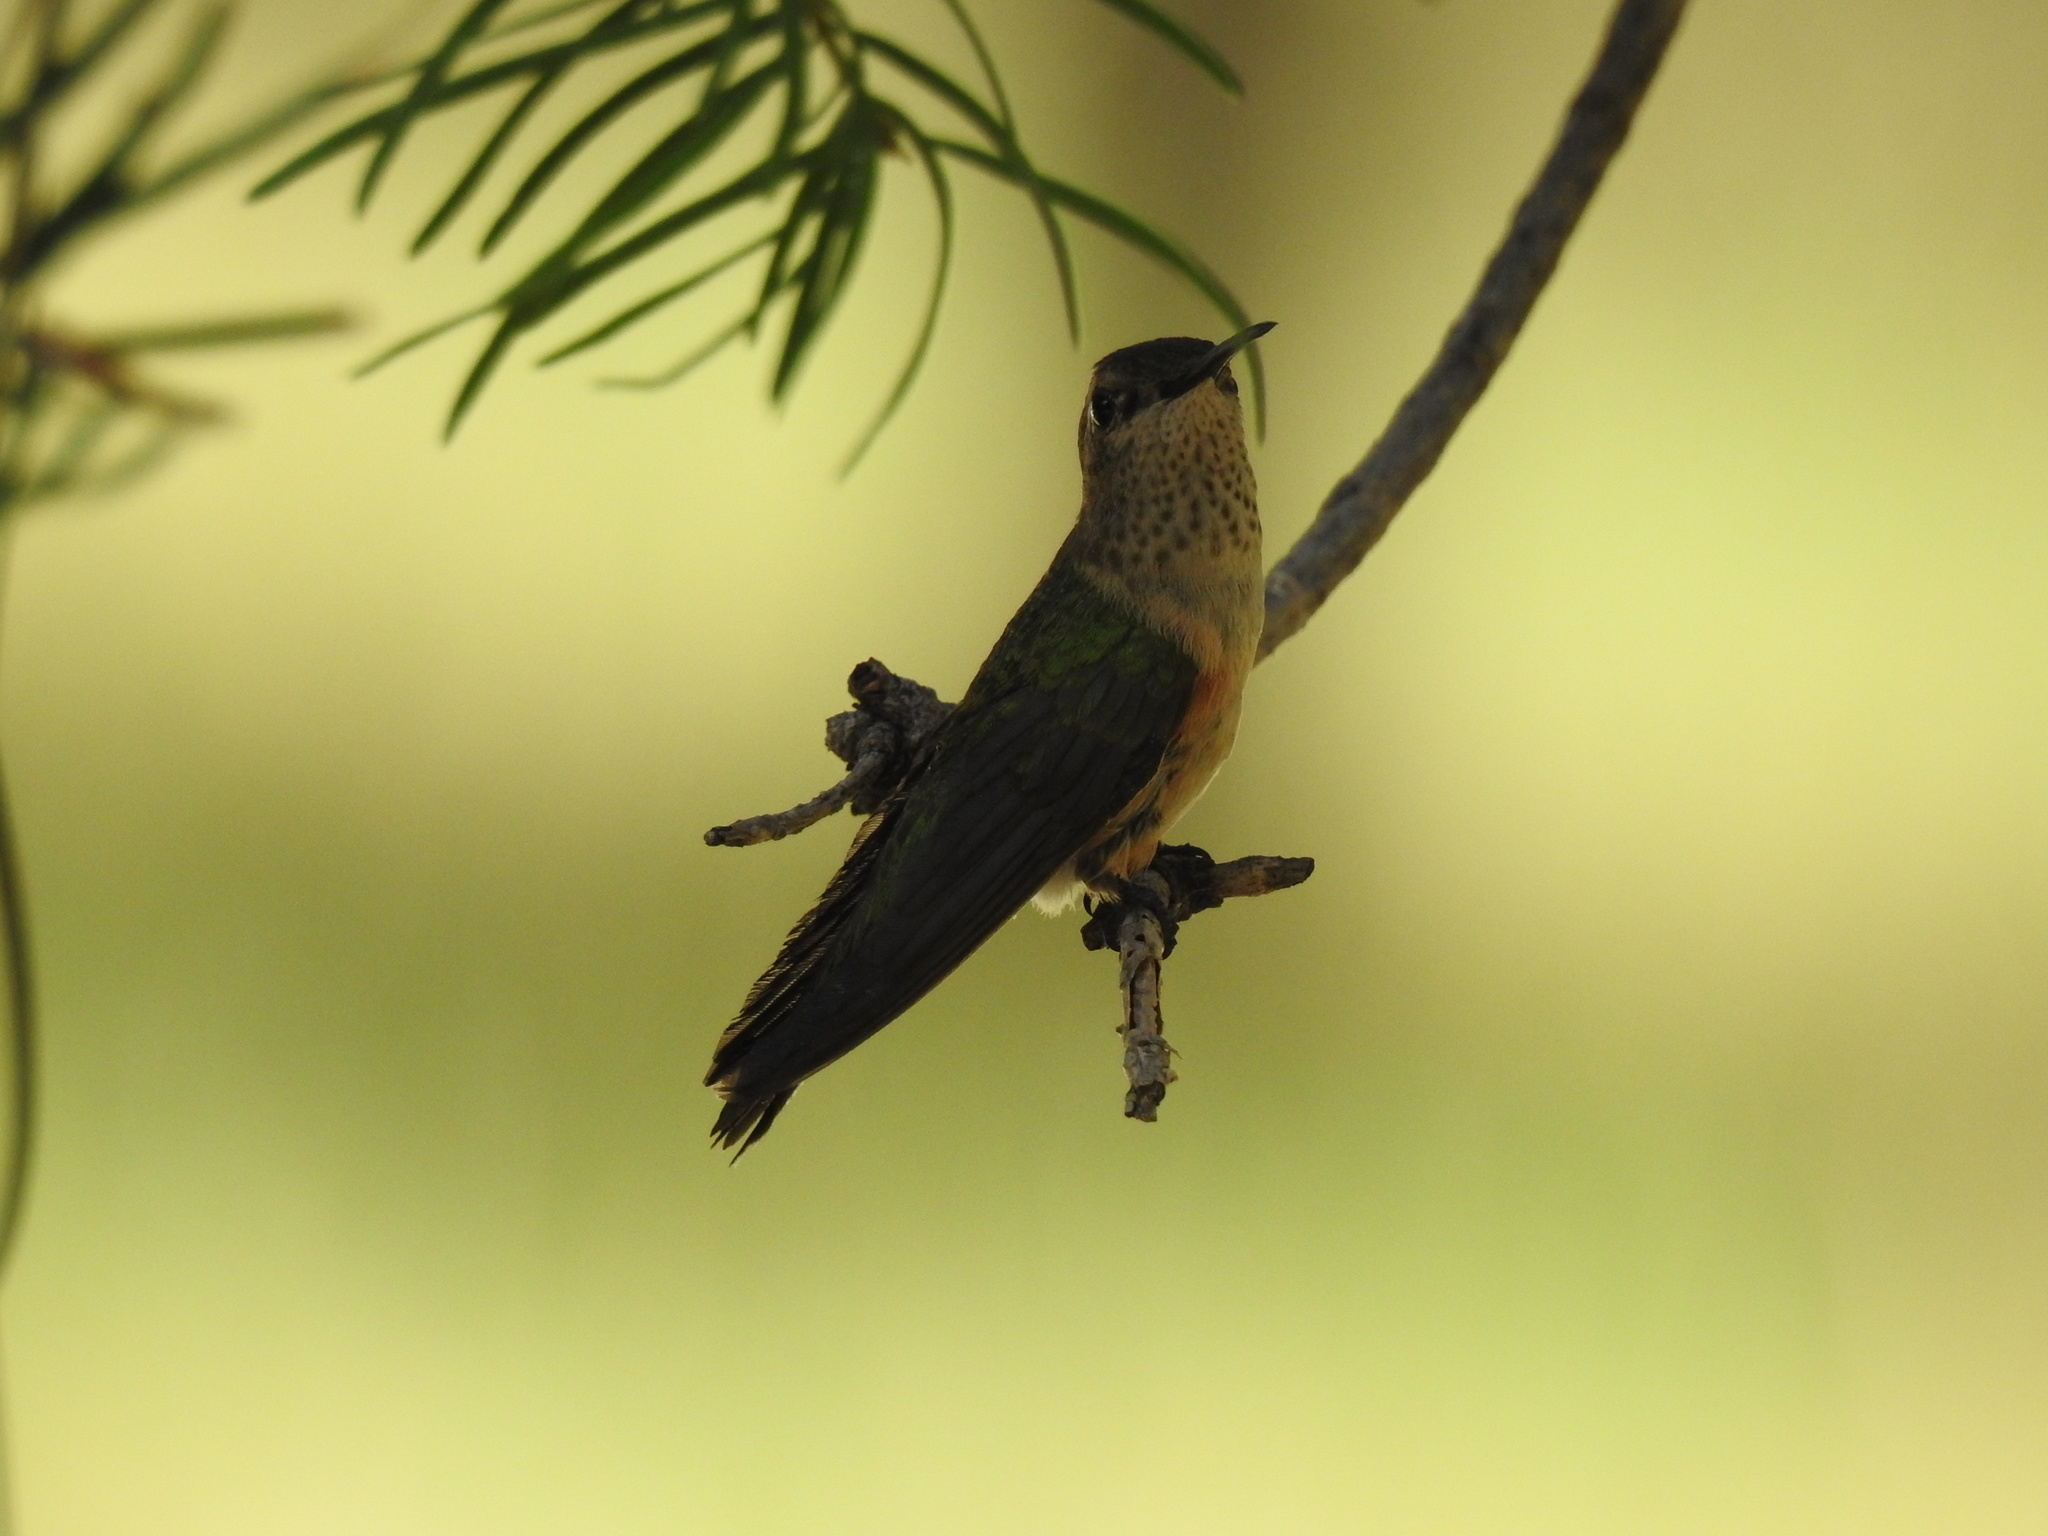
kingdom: Animalia
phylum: Chordata
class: Aves
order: Apodiformes
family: Trochilidae
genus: Selasphorus
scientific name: Selasphorus platycercus
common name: Broad-tailed hummingbird
